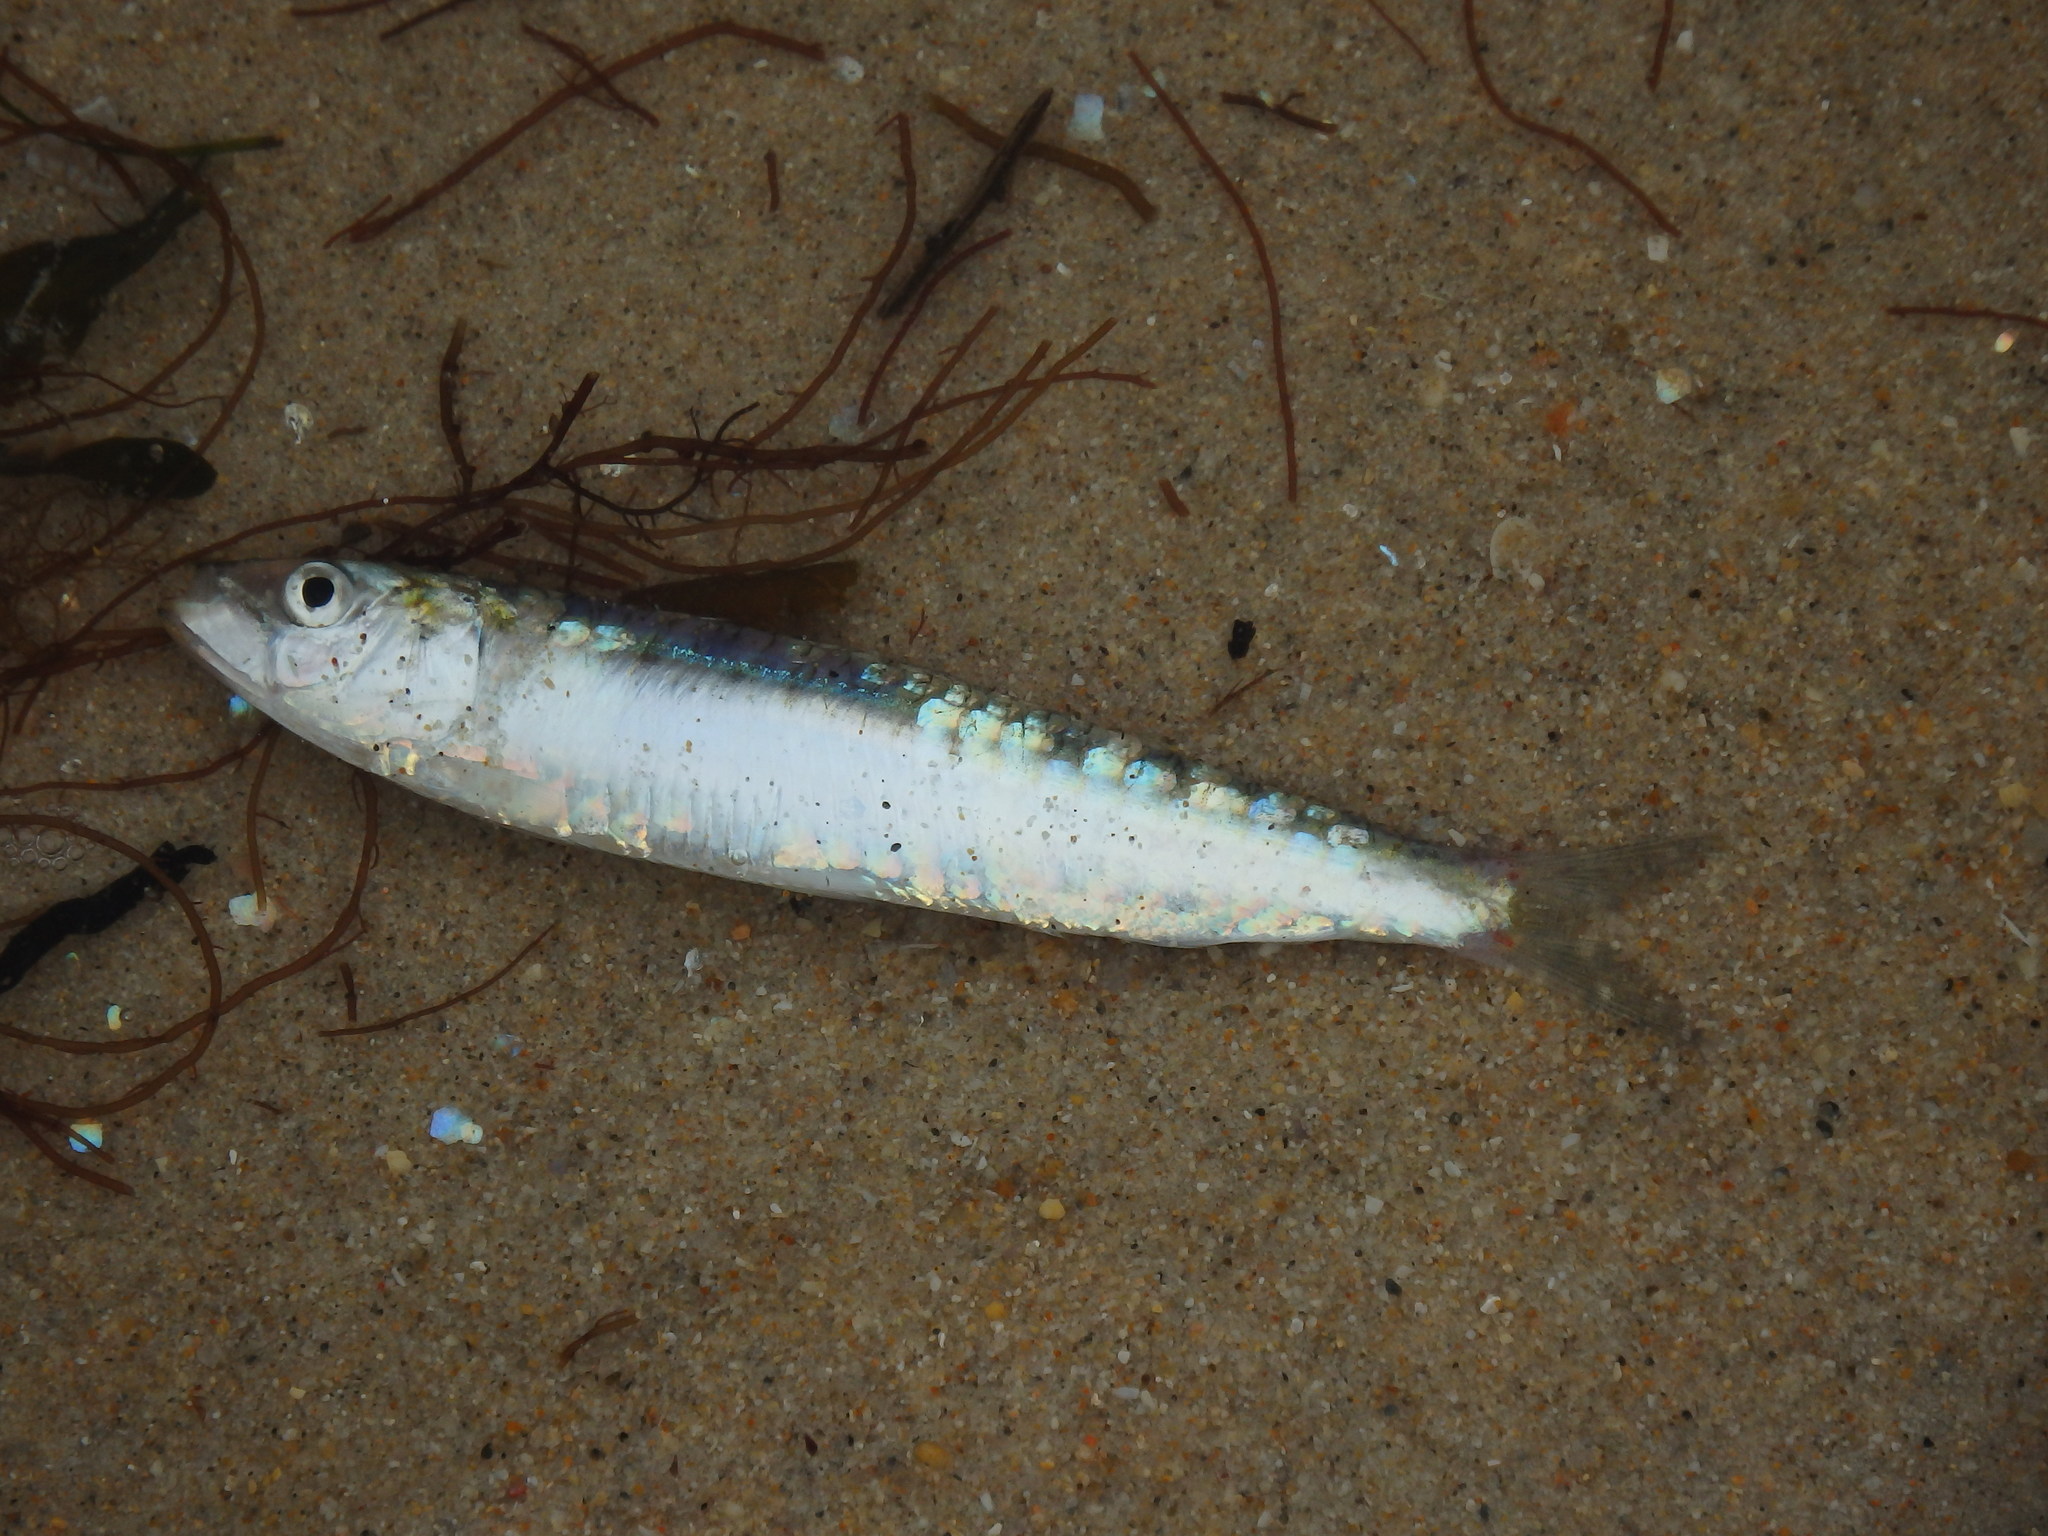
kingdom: Animalia
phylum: Chordata
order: Clupeiformes
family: Clupeidae
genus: Sardina
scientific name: Sardina pilchardus
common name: Pilchard
